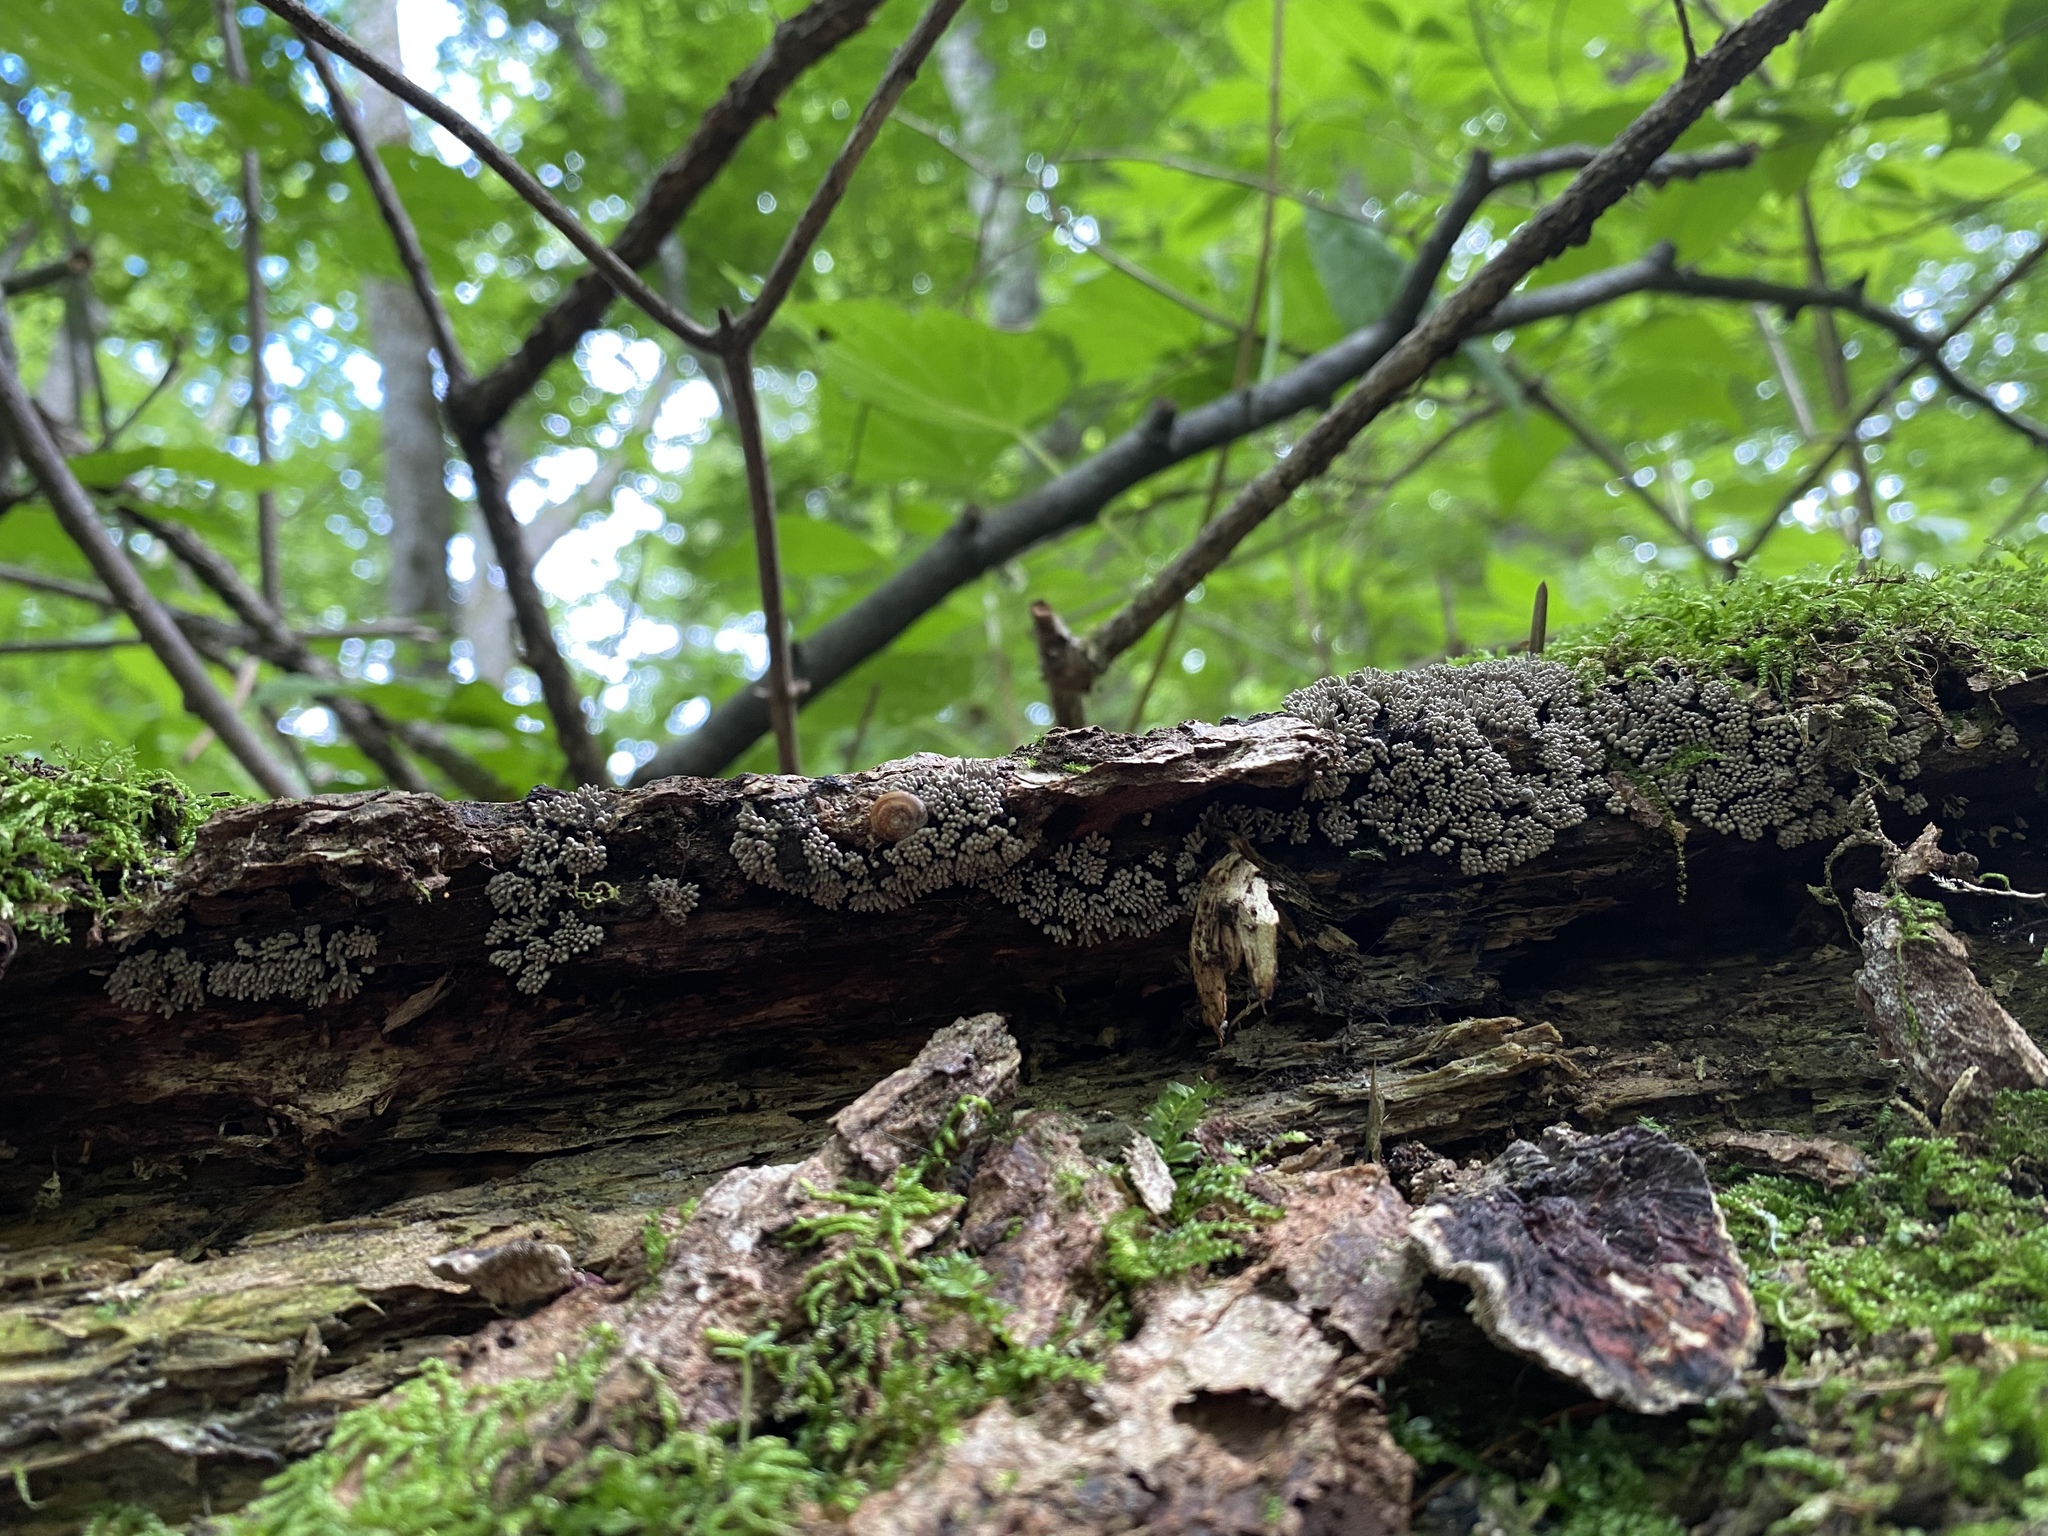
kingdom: Protozoa
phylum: Mycetozoa
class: Myxomycetes
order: Trichiales
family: Arcyriaceae
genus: Arcyria
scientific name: Arcyria cinerea
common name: White carnival candy slime mold
